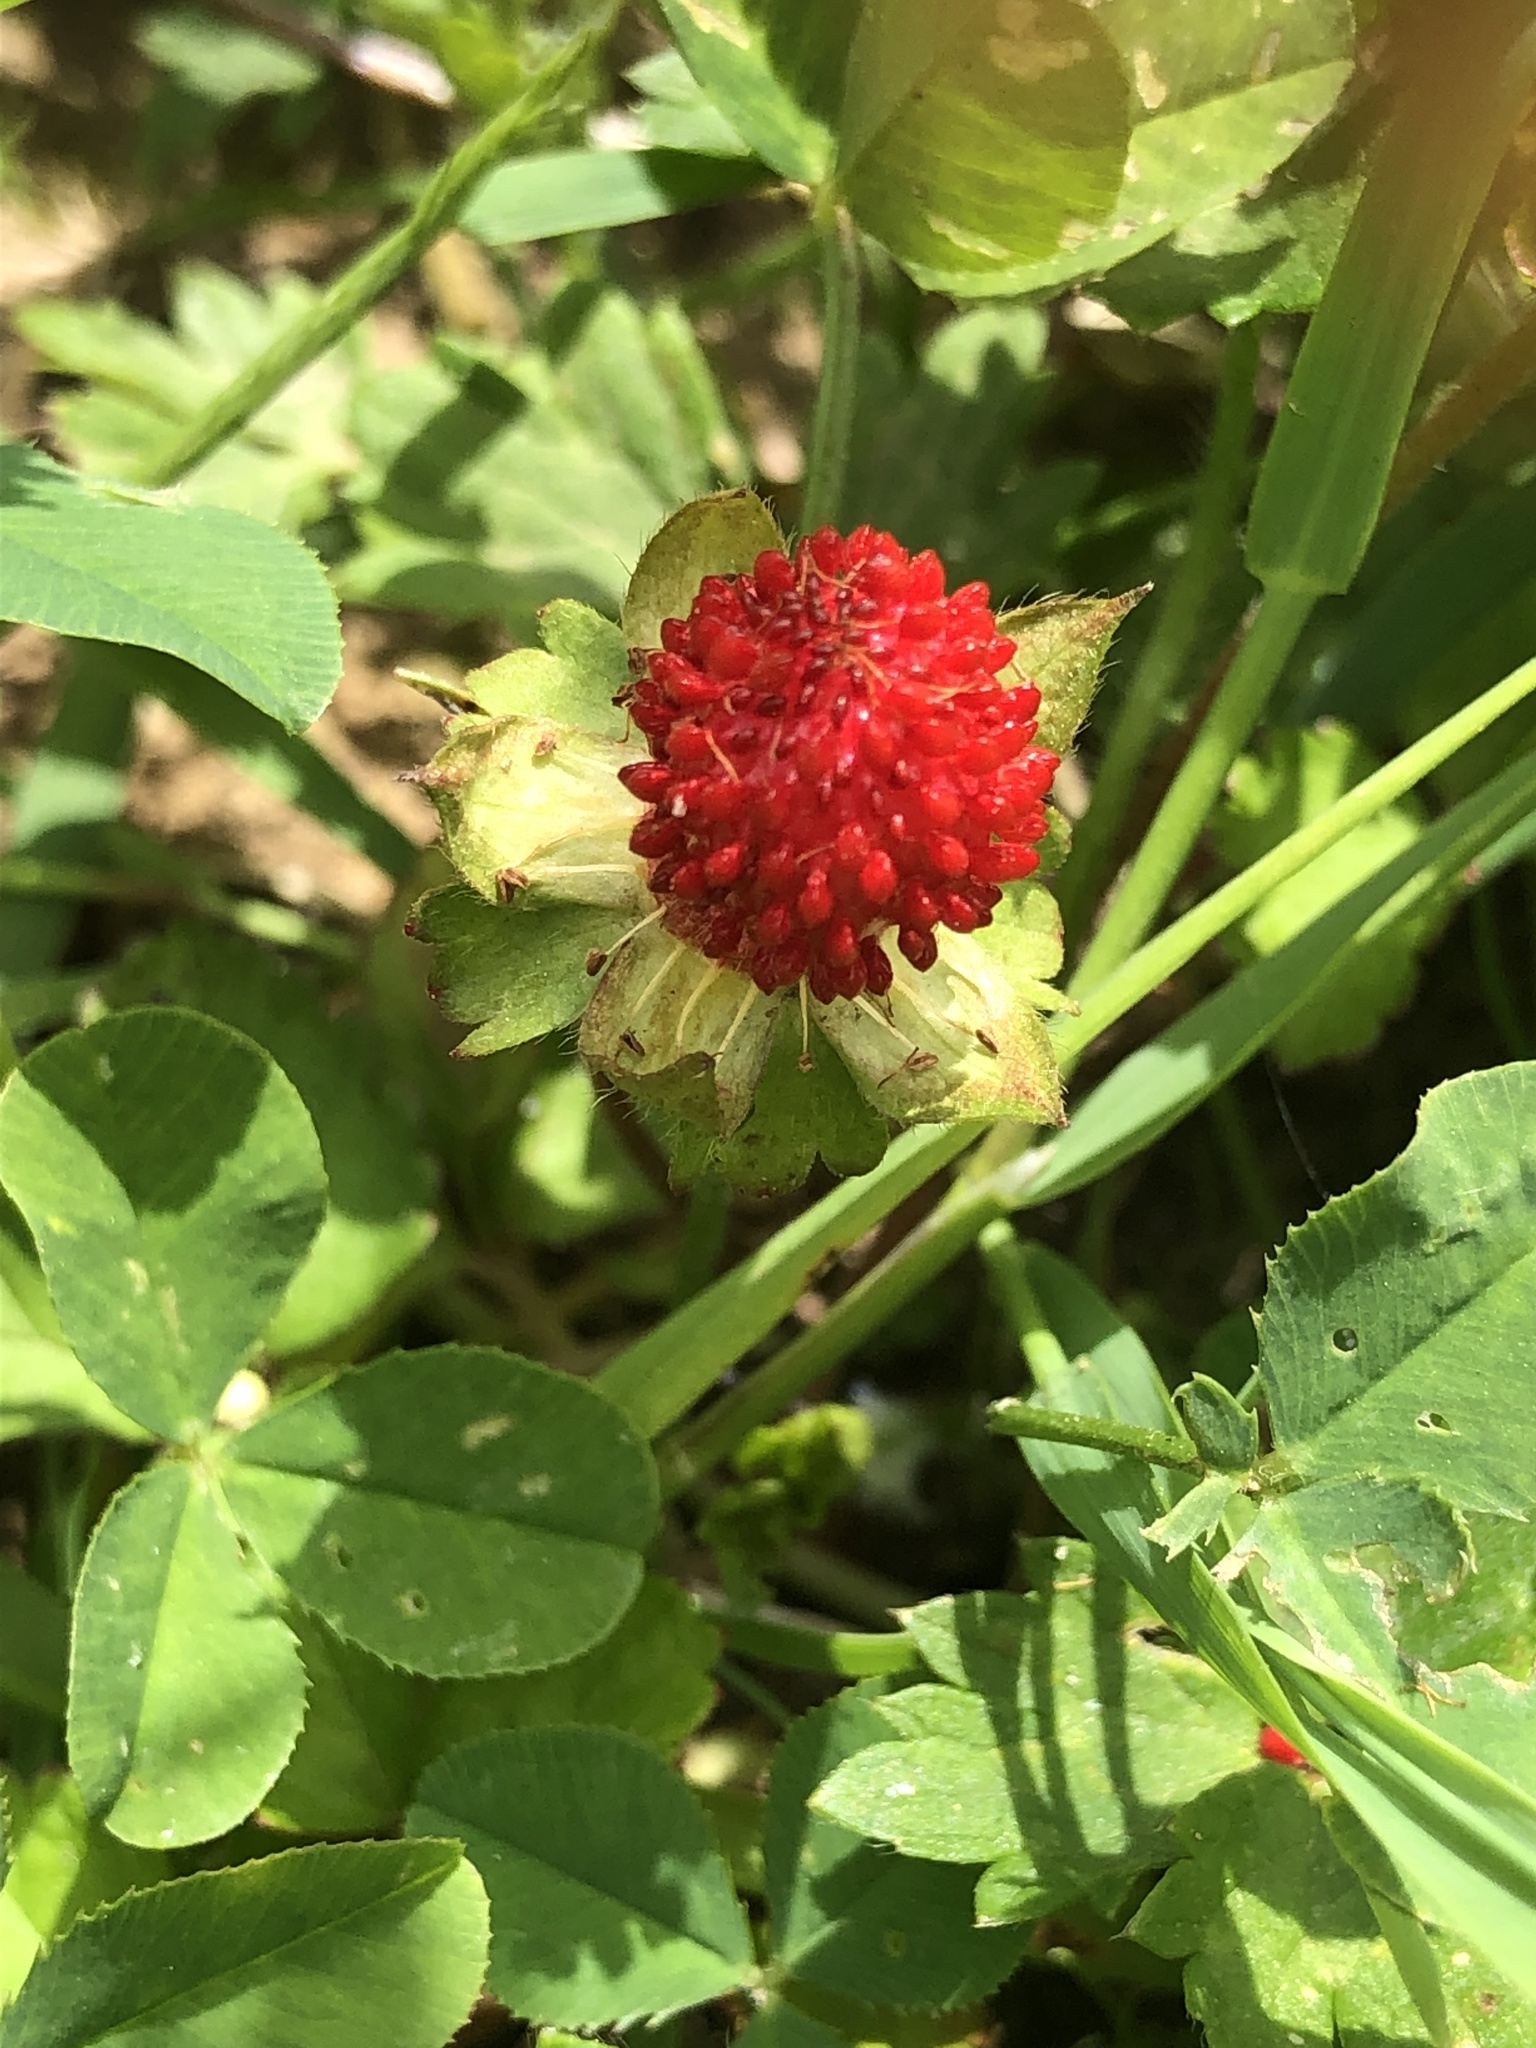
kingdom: Plantae
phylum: Tracheophyta
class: Magnoliopsida
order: Rosales
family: Rosaceae
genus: Potentilla
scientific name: Potentilla indica
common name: Yellow-flowered strawberry
